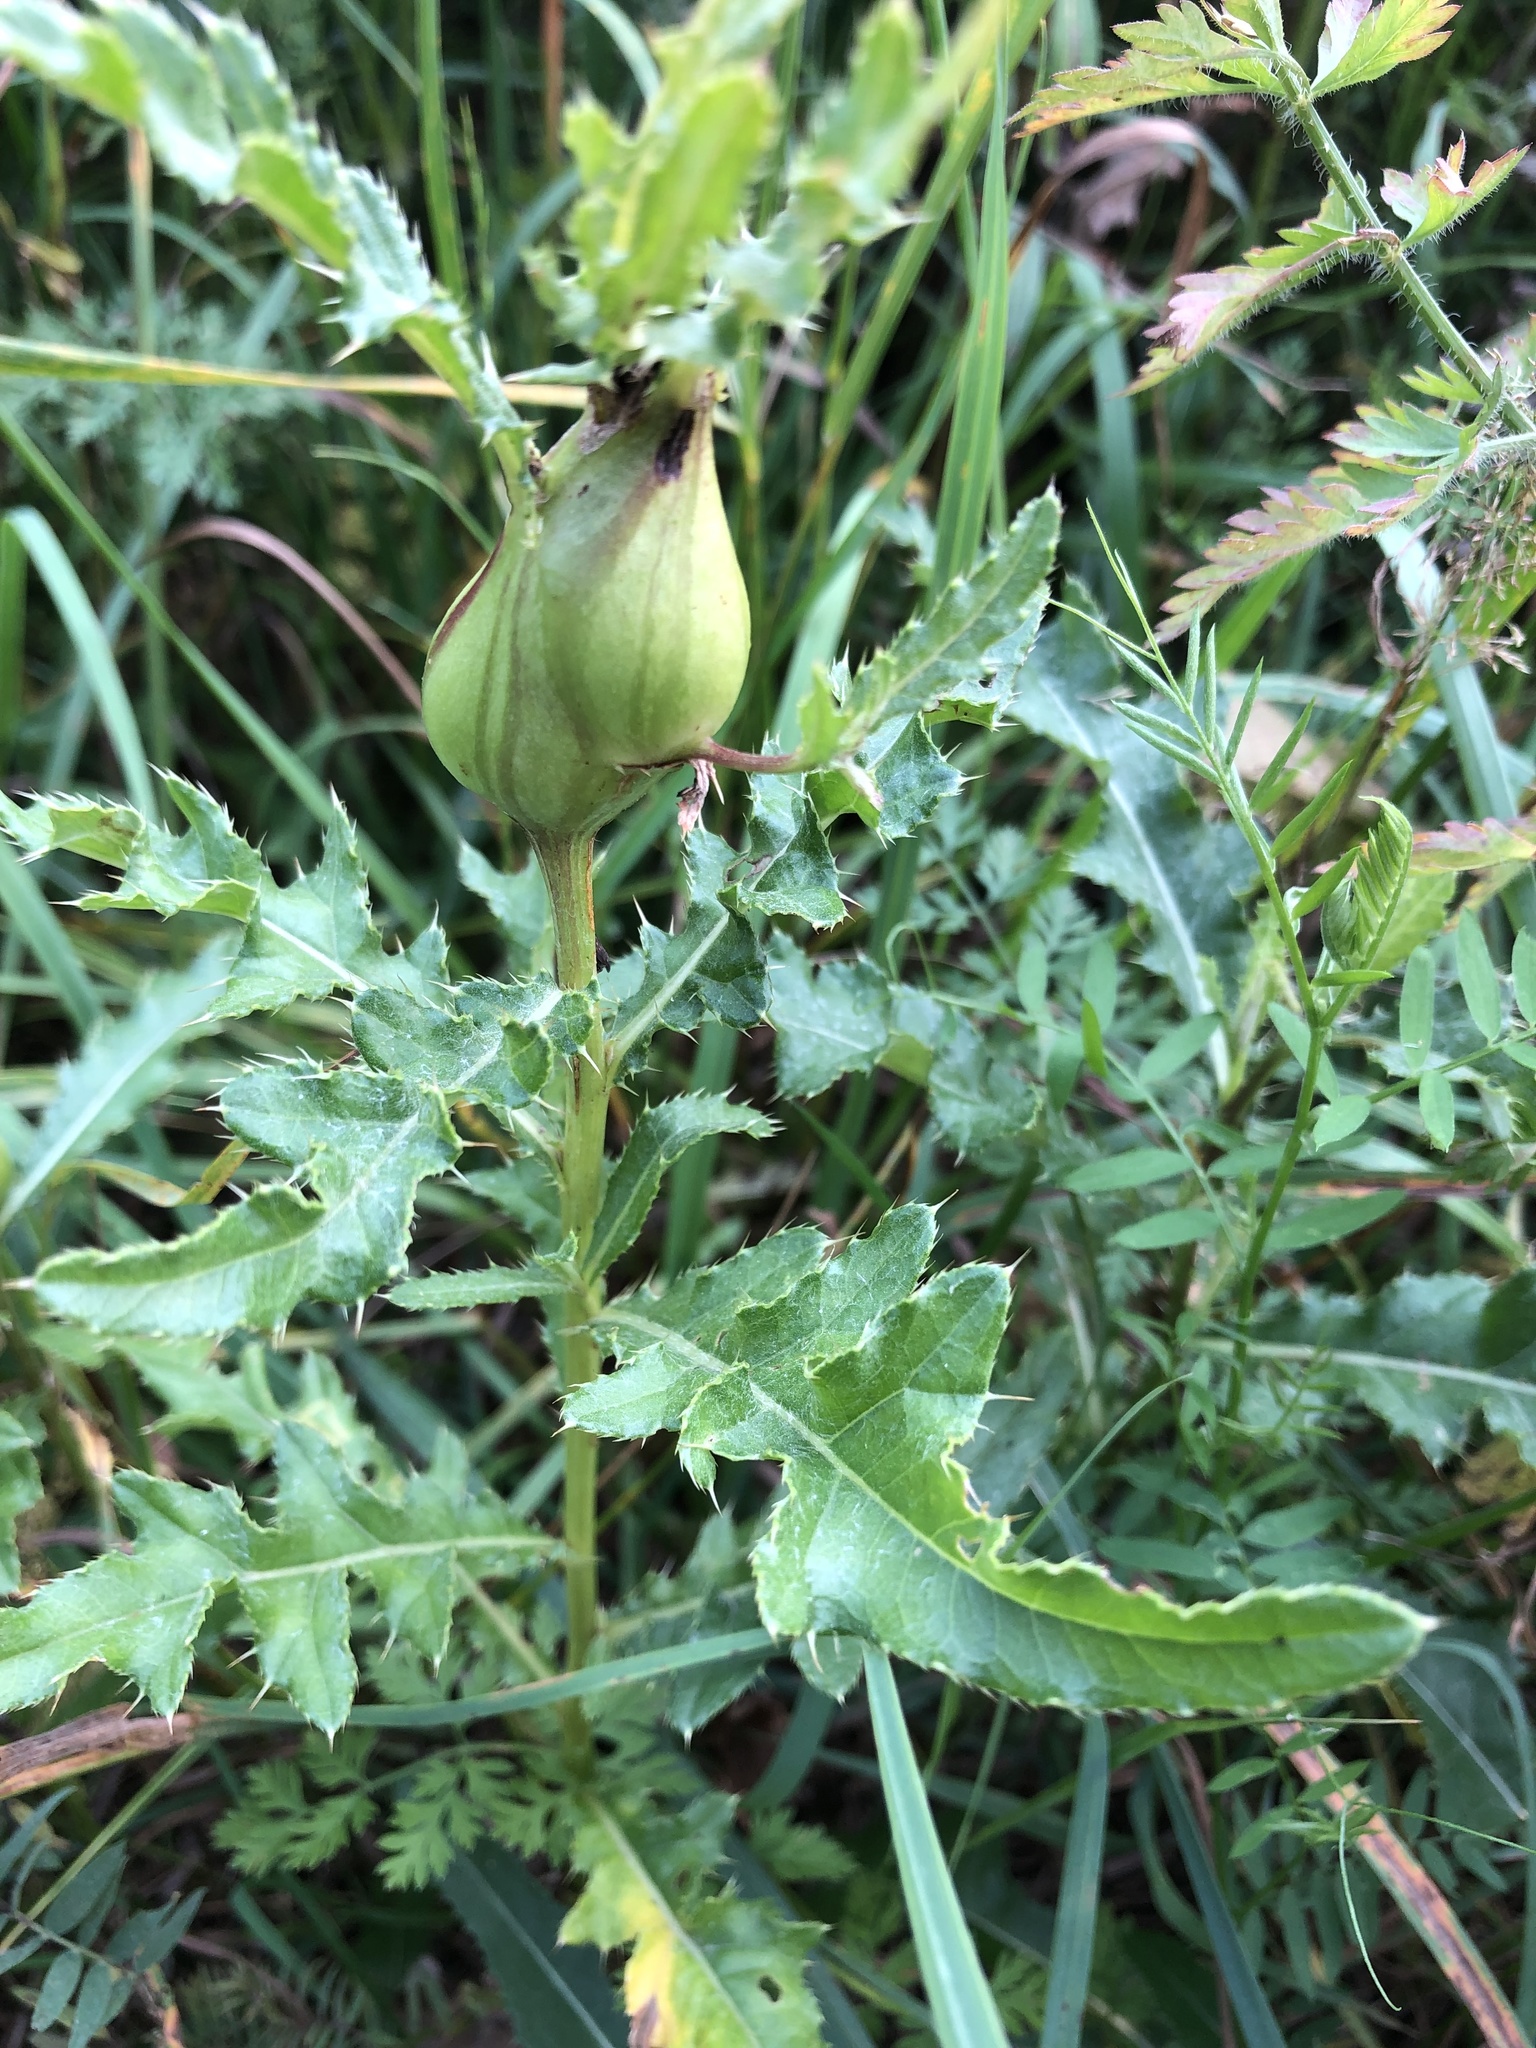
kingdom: Animalia
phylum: Arthropoda
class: Insecta
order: Diptera
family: Tephritidae
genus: Urophora
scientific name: Urophora cardui
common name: Fruit fly
